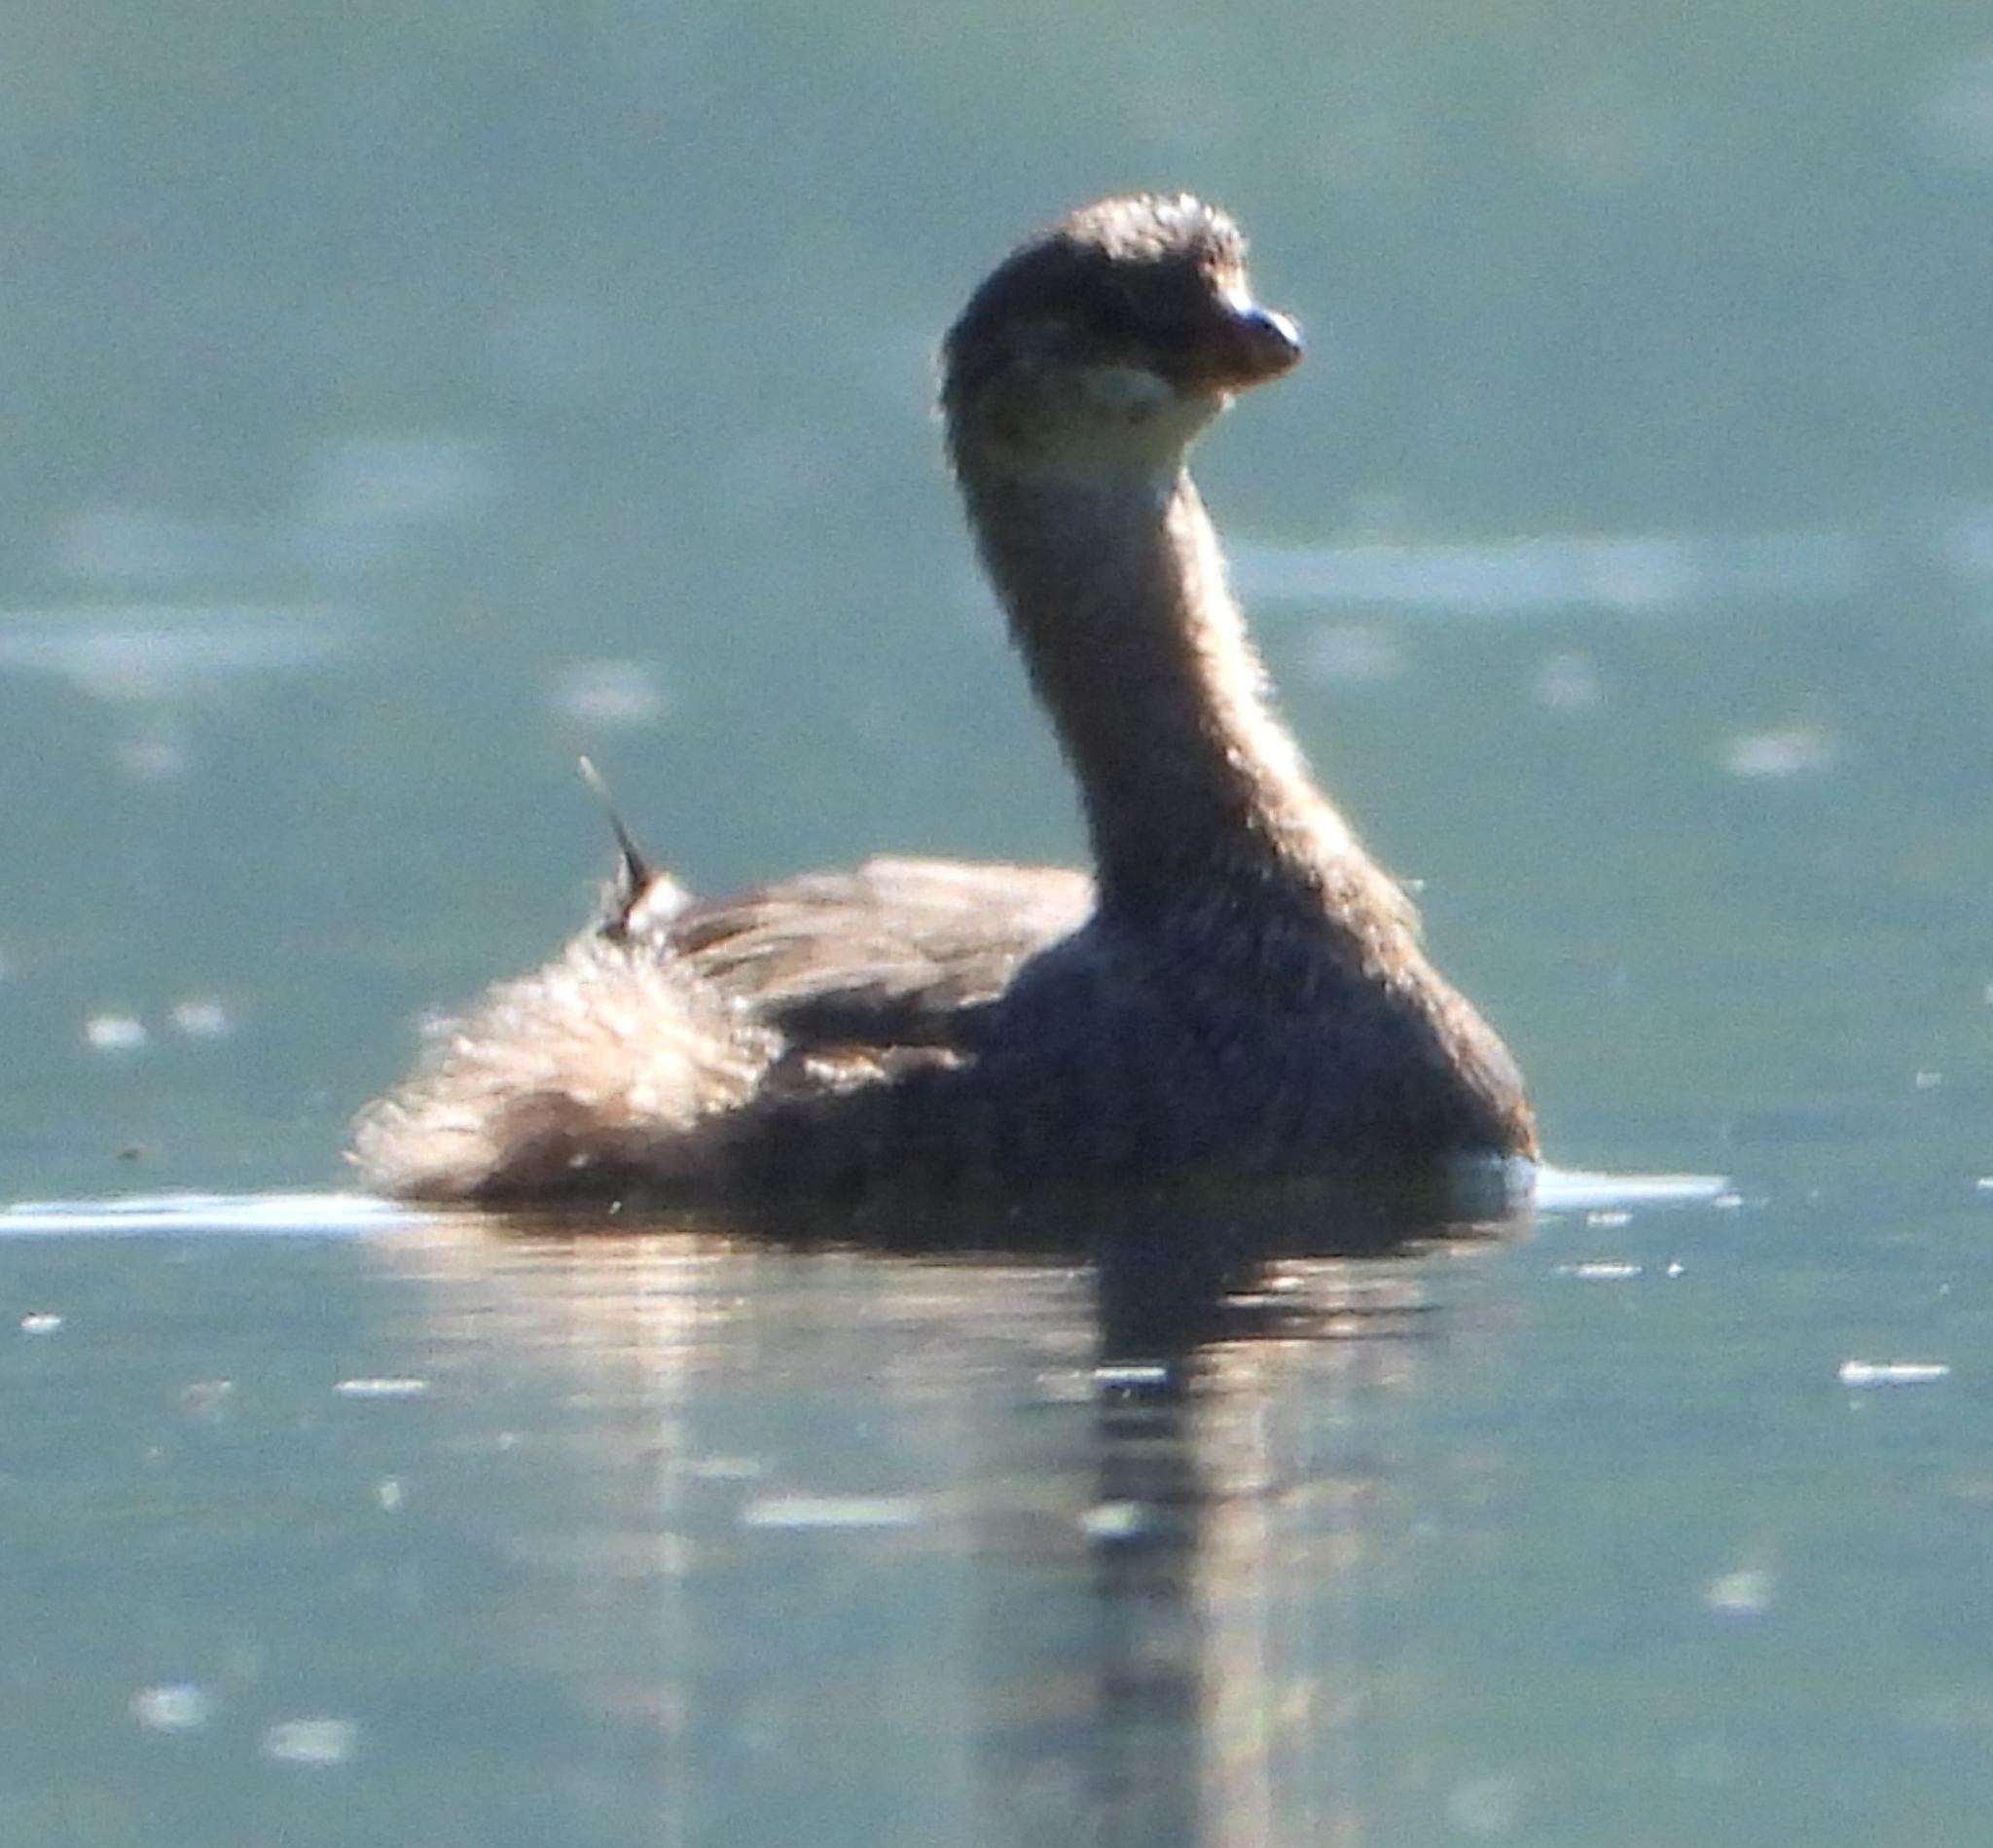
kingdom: Animalia
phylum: Chordata
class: Aves
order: Podicipediformes
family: Podicipedidae
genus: Podilymbus
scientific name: Podilymbus podiceps
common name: Pied-billed grebe
